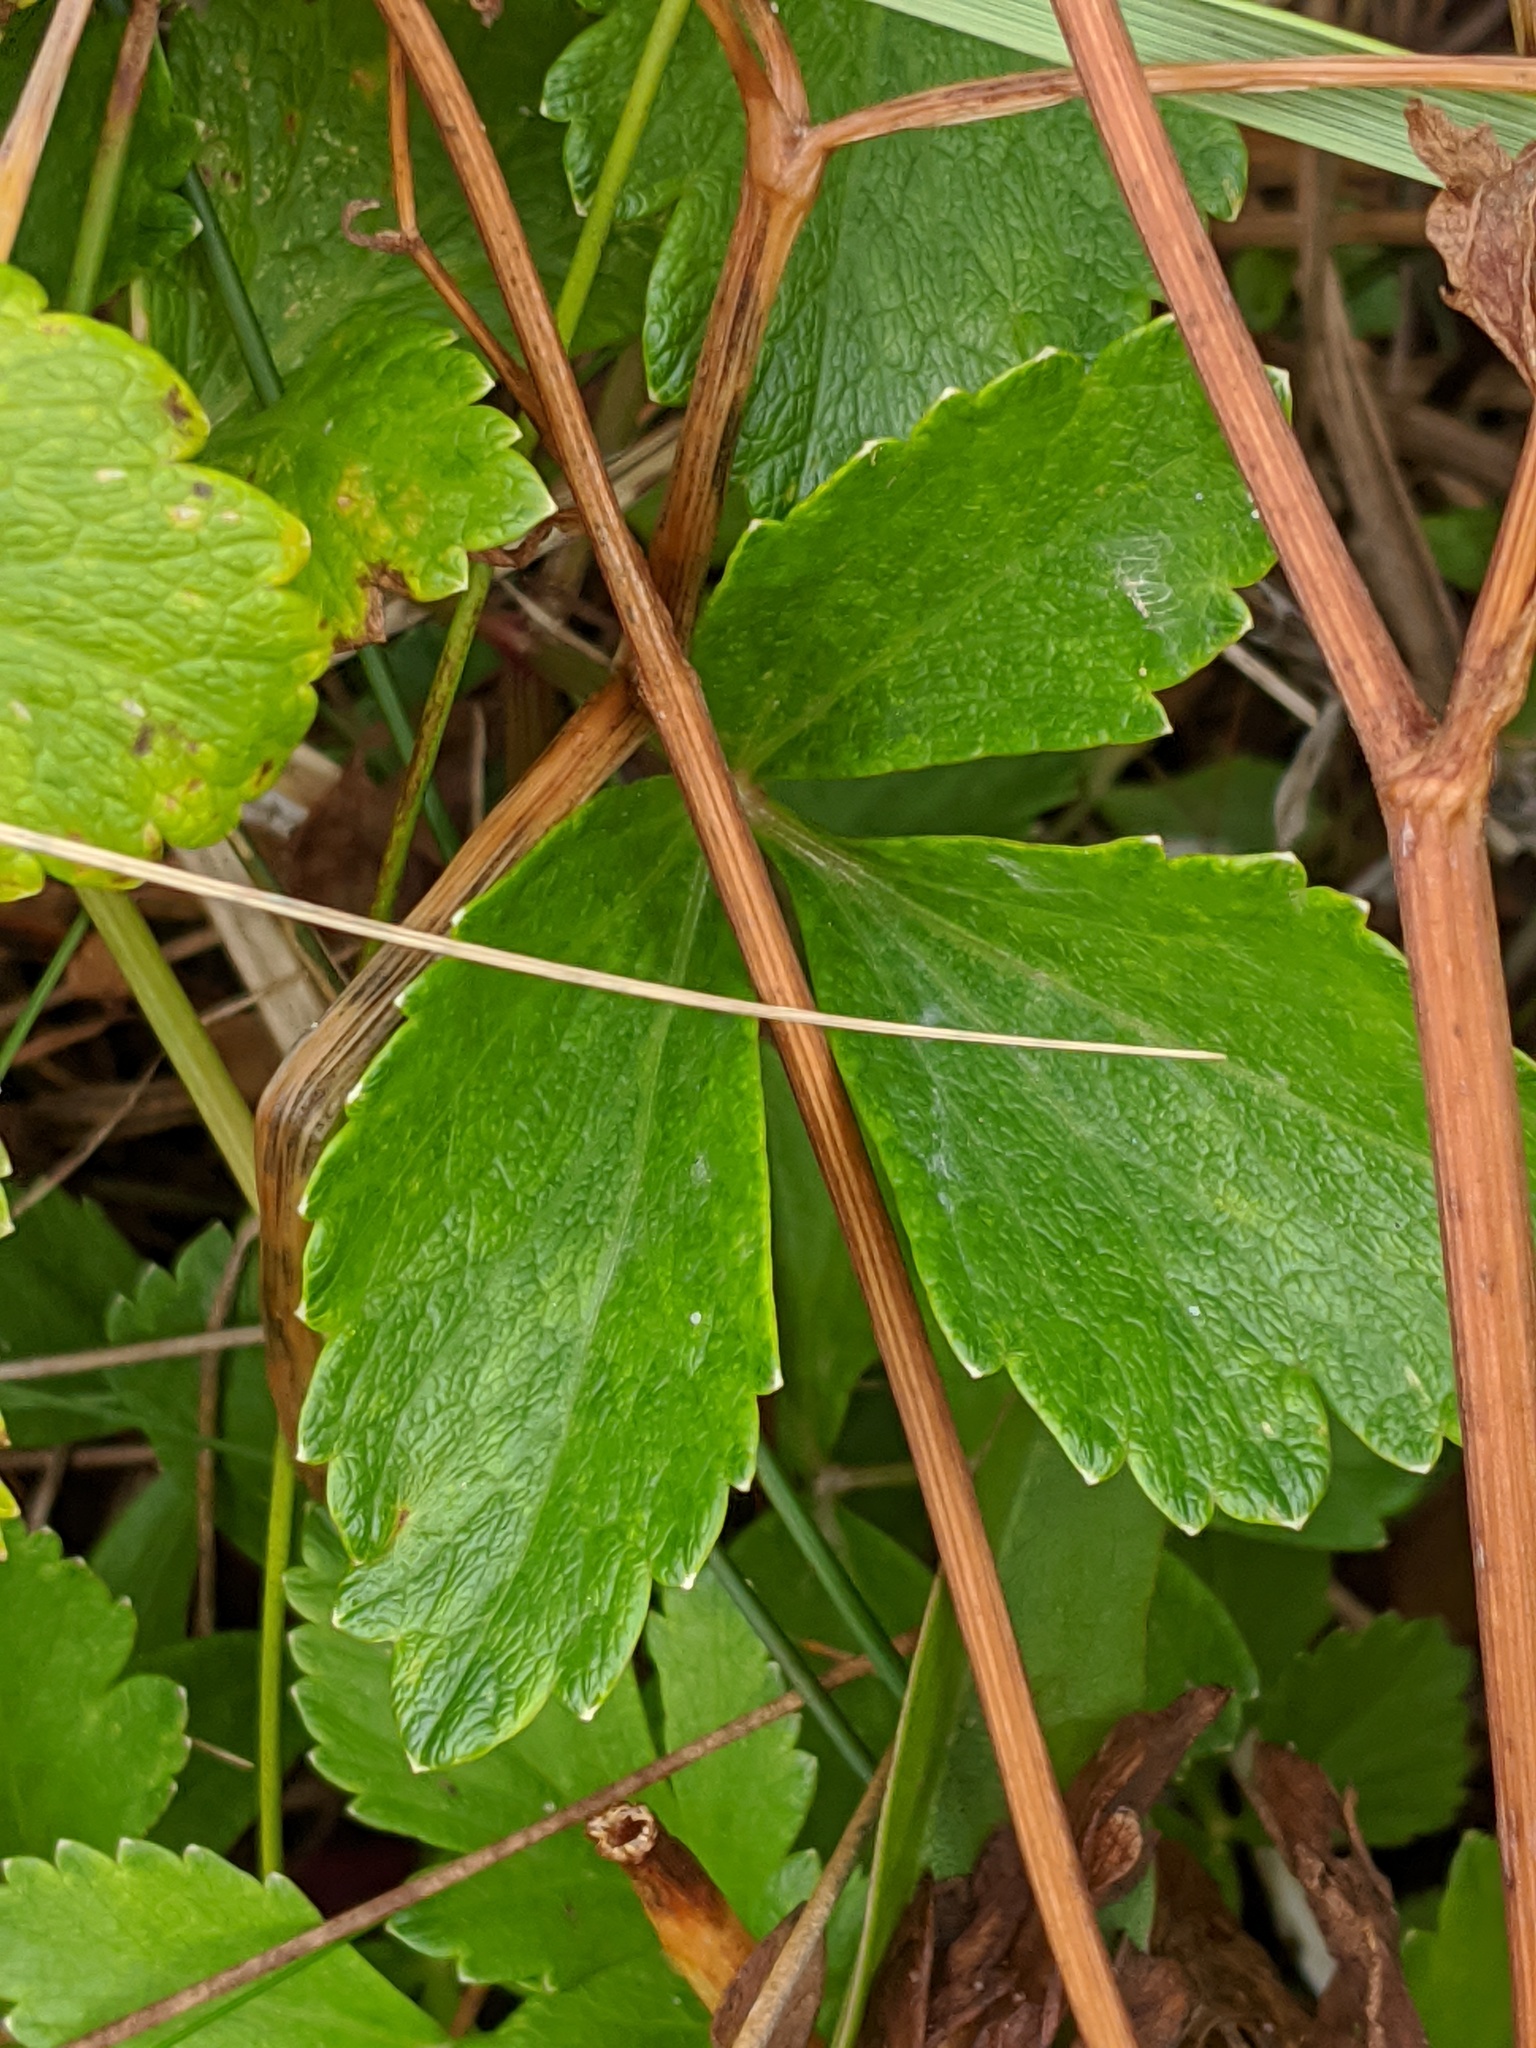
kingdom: Plantae
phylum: Tracheophyta
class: Magnoliopsida
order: Apiales
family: Apiaceae
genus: Ligusticum
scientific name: Ligusticum scothicum
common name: Beach lovage
